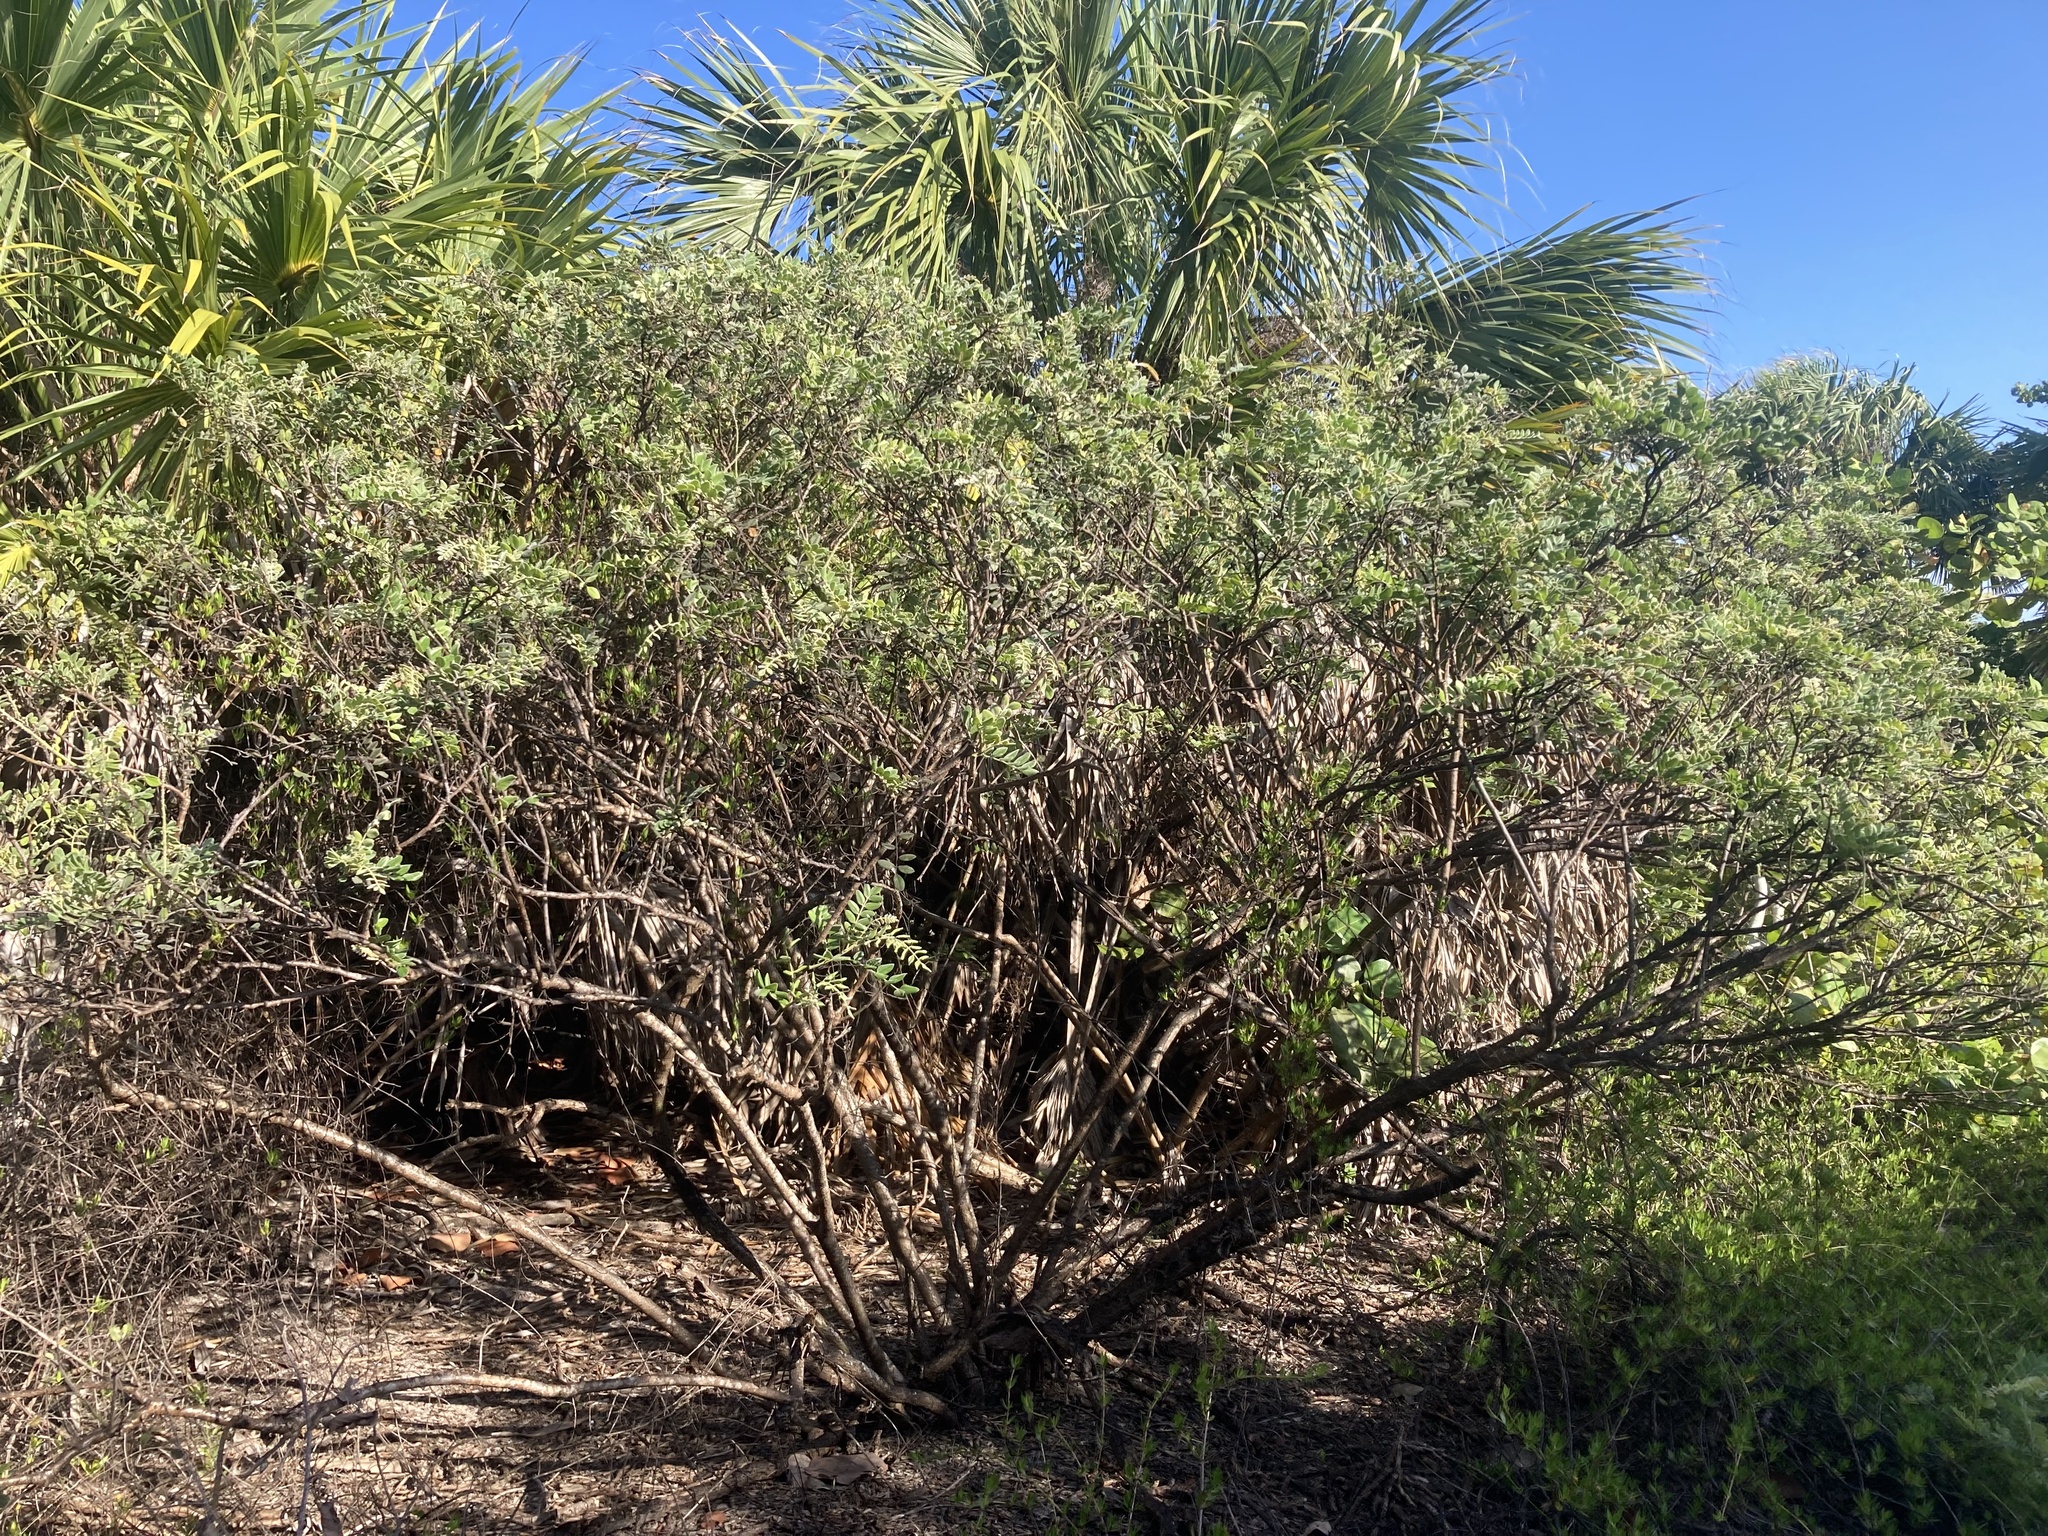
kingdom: Plantae
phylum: Tracheophyta
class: Magnoliopsida
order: Fabales
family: Fabaceae
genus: Sophora
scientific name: Sophora tomentosa
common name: Yellow necklacepod
